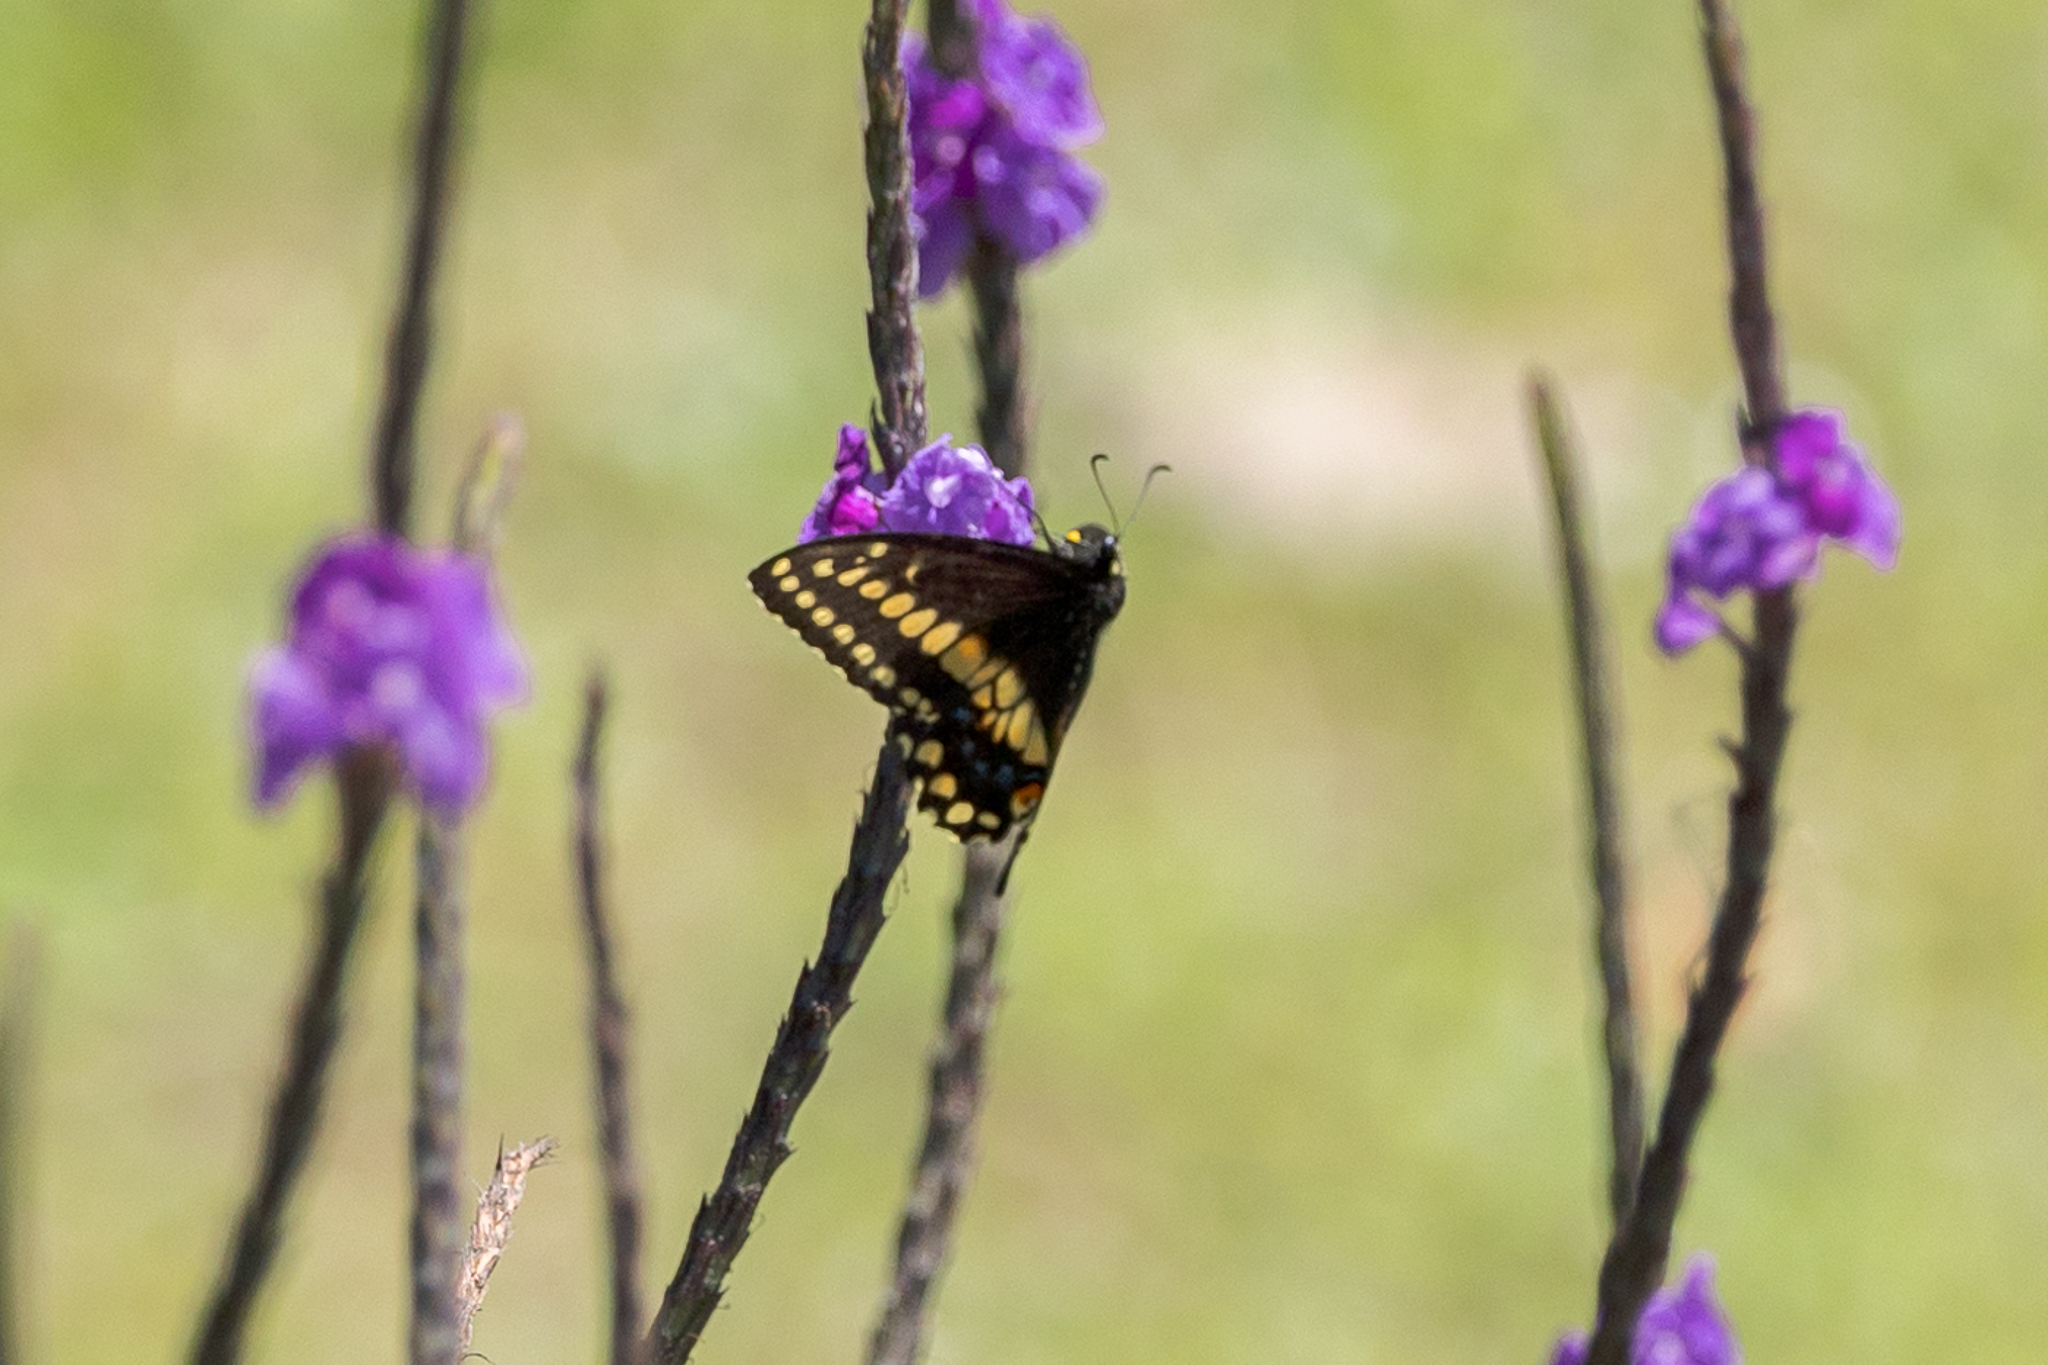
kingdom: Animalia
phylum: Arthropoda
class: Insecta
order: Lepidoptera
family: Papilionidae
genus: Papilio
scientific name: Papilio polyxenes
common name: Black swallowtail
